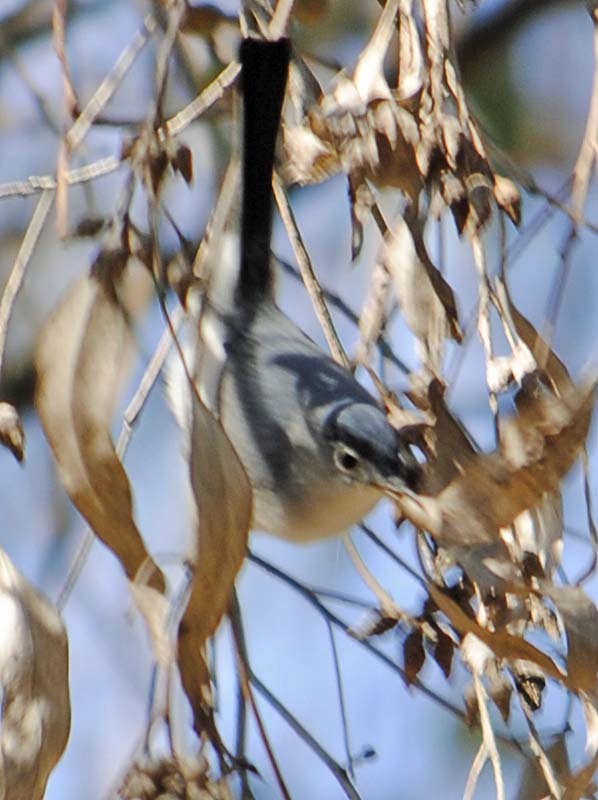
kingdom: Animalia
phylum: Chordata
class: Aves
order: Passeriformes
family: Polioptilidae
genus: Polioptila
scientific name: Polioptila caerulea
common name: Blue-gray gnatcatcher
